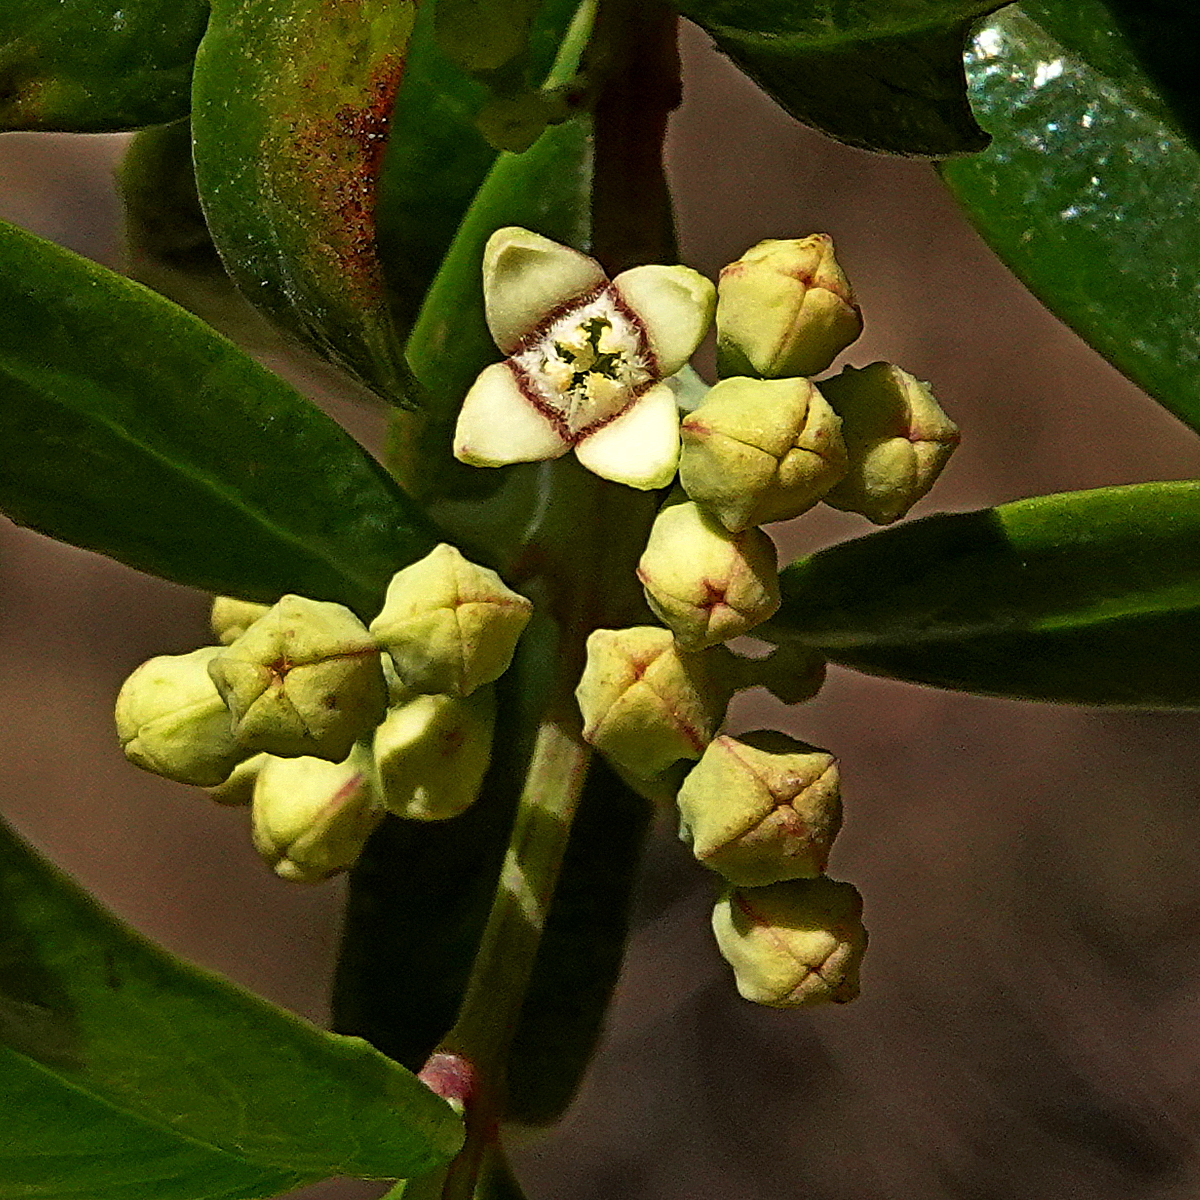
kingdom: Plantae
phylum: Tracheophyta
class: Magnoliopsida
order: Santalales
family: Santalaceae
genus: Santalum
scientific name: Santalum obtusifolium
